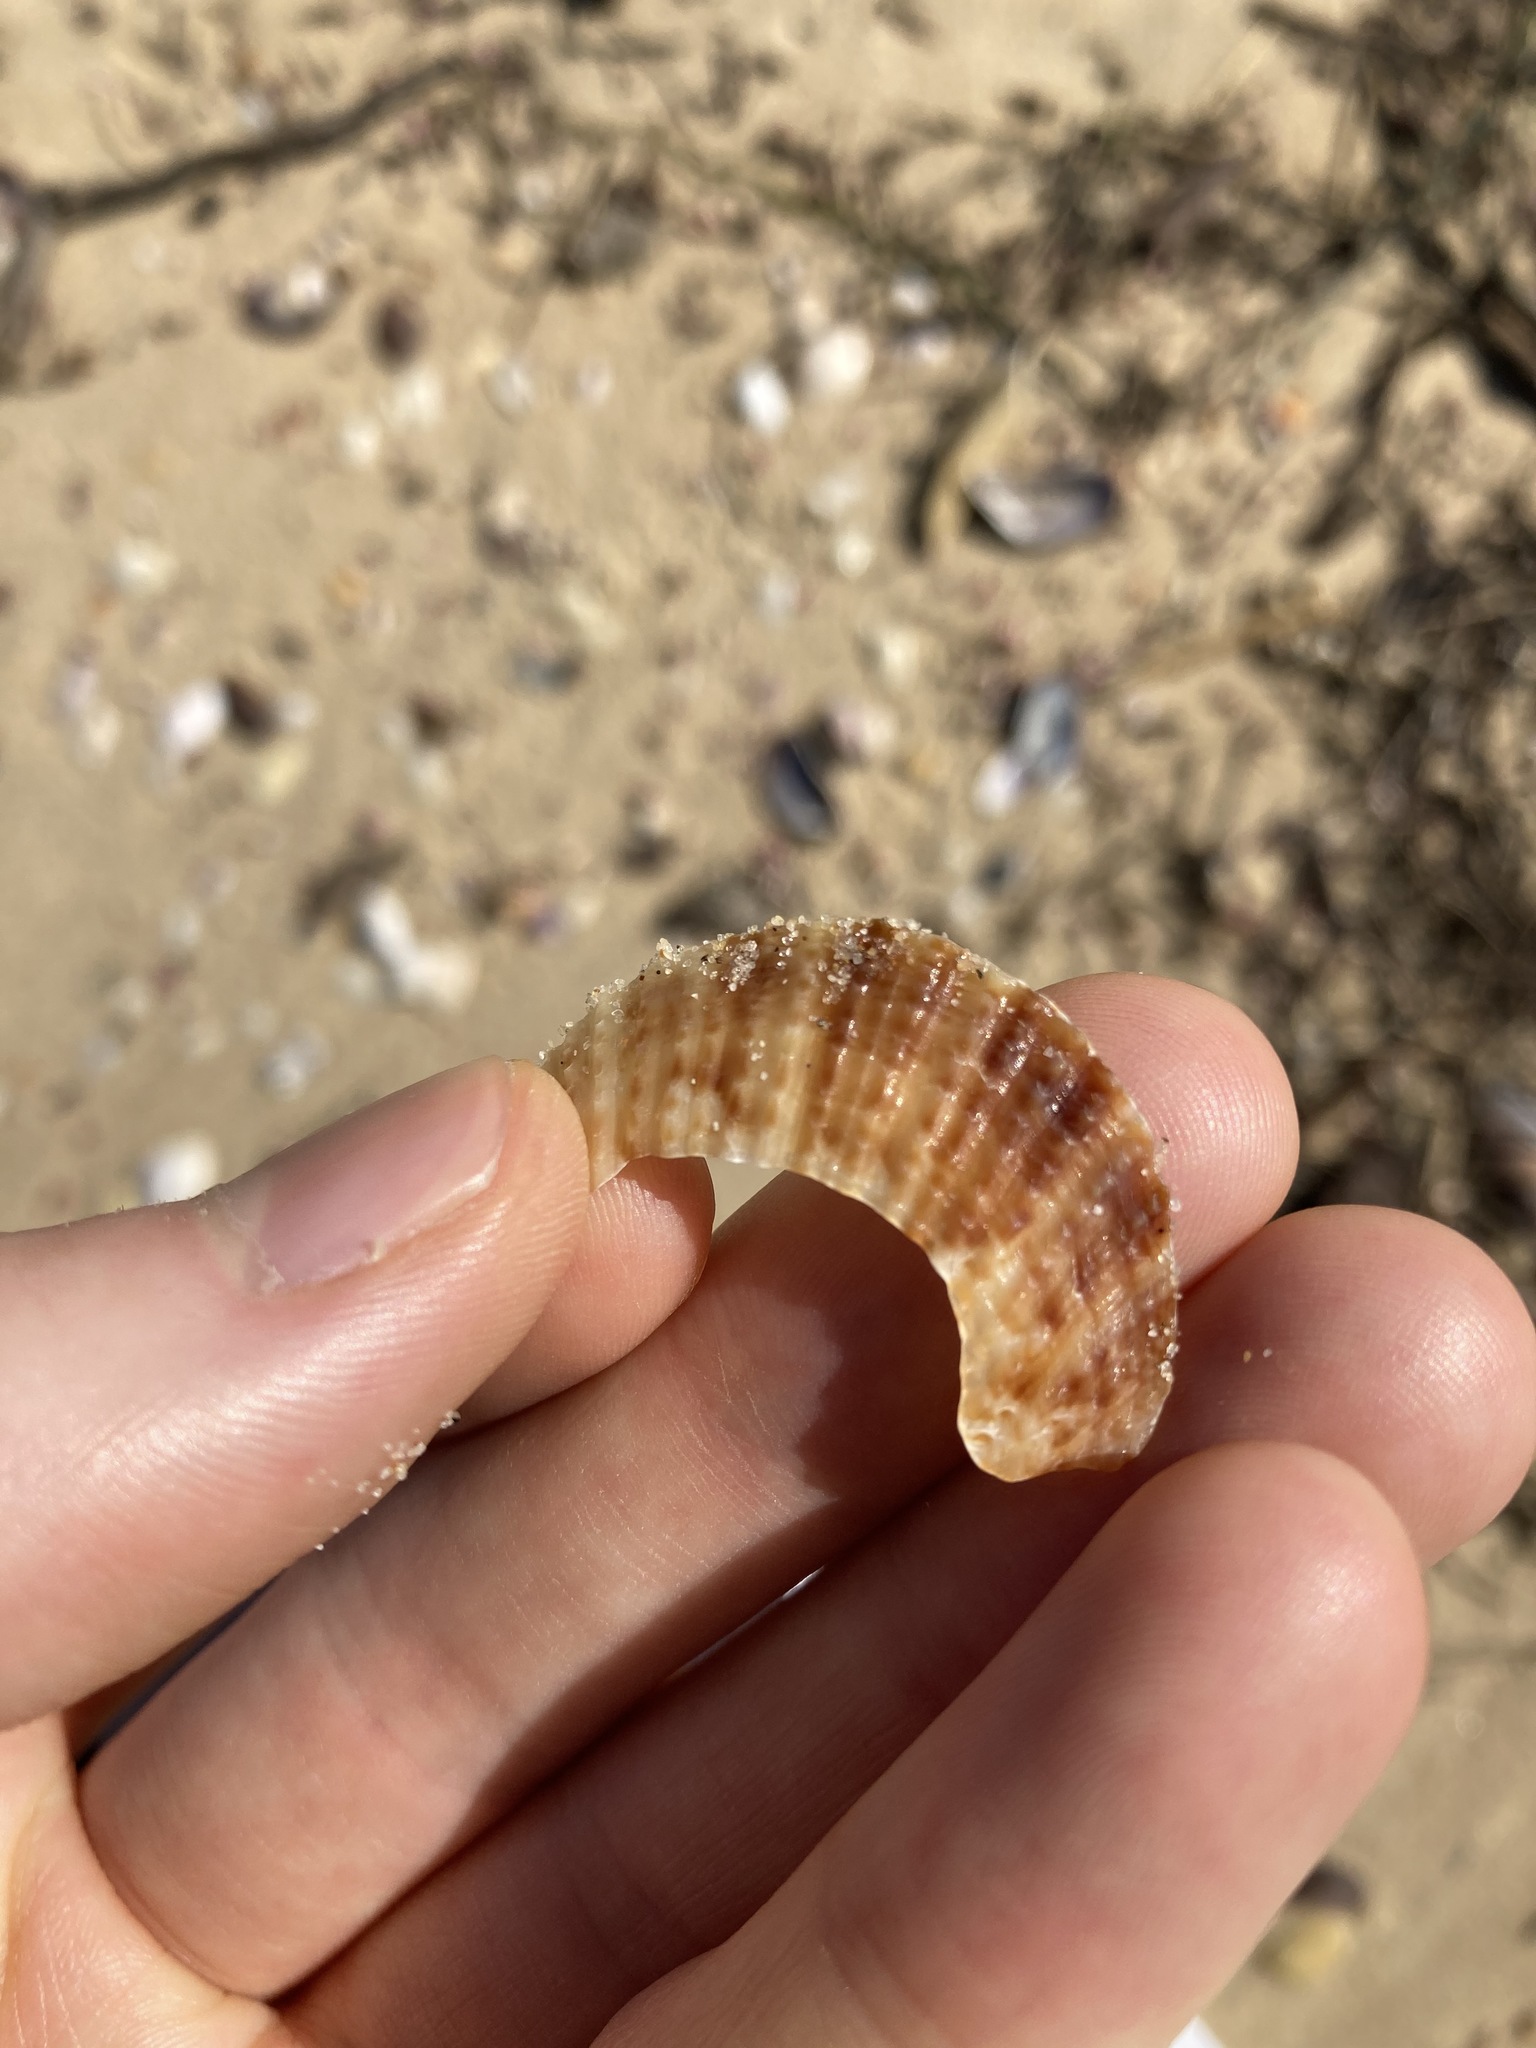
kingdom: Animalia
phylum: Mollusca
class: Bivalvia
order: Pectinida
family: Pectinidae
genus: Scaeochlamys
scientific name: Scaeochlamys livida
